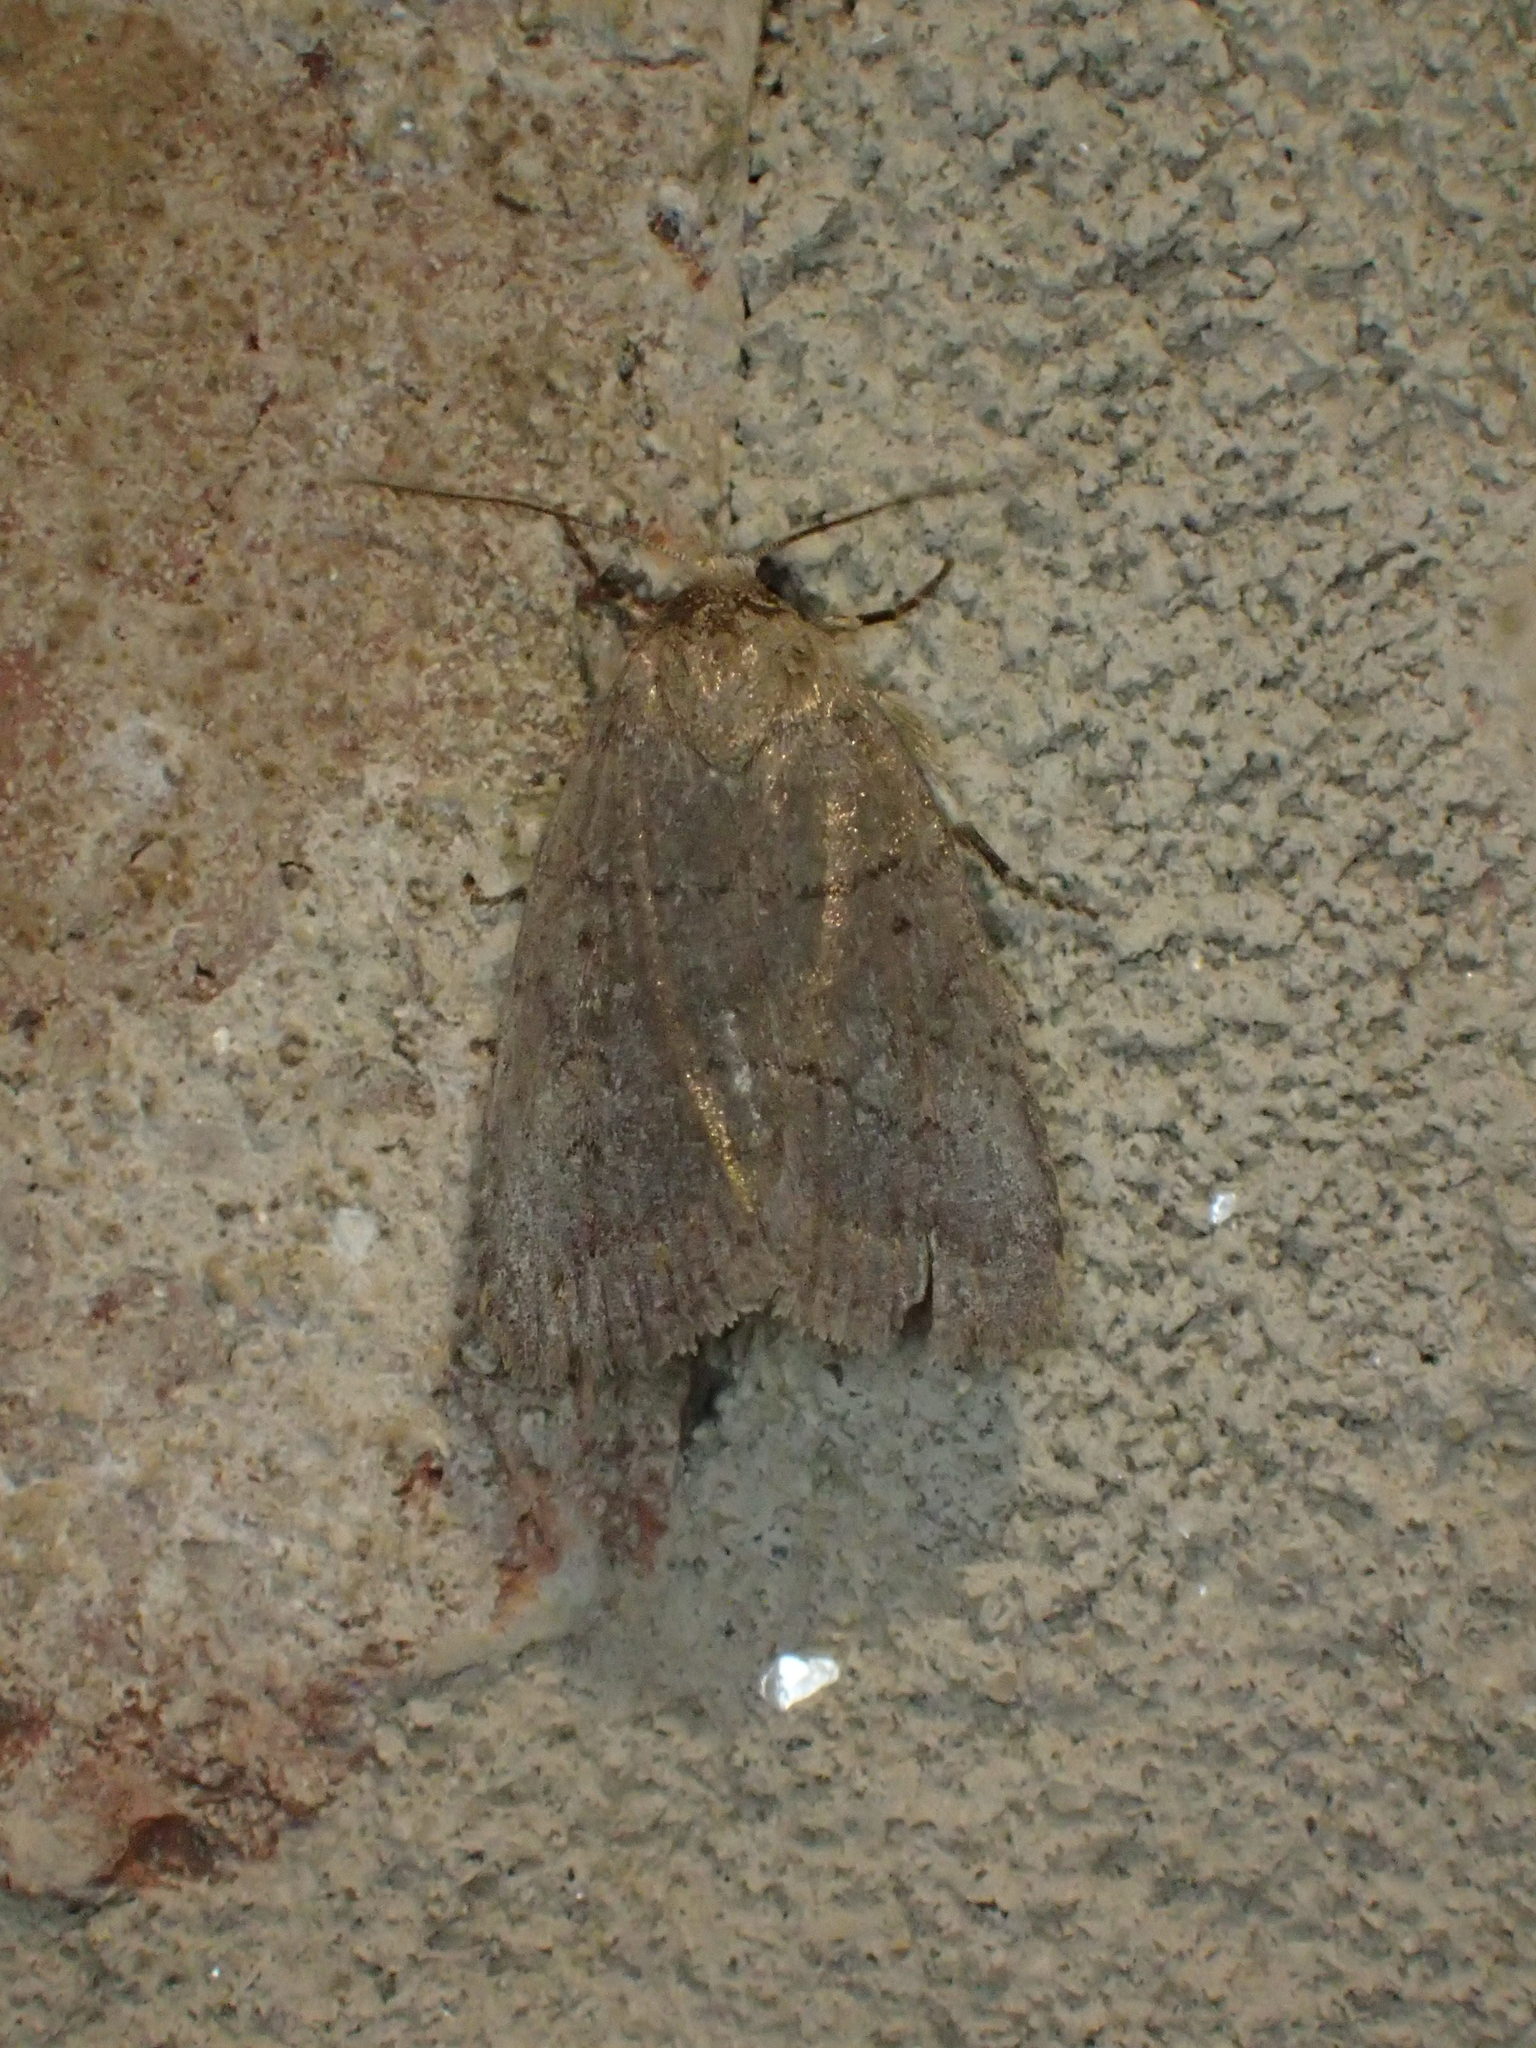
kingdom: Animalia
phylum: Arthropoda
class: Insecta
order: Lepidoptera
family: Noctuidae
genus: Athetis
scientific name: Athetis tarda
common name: Slowpoke moth
